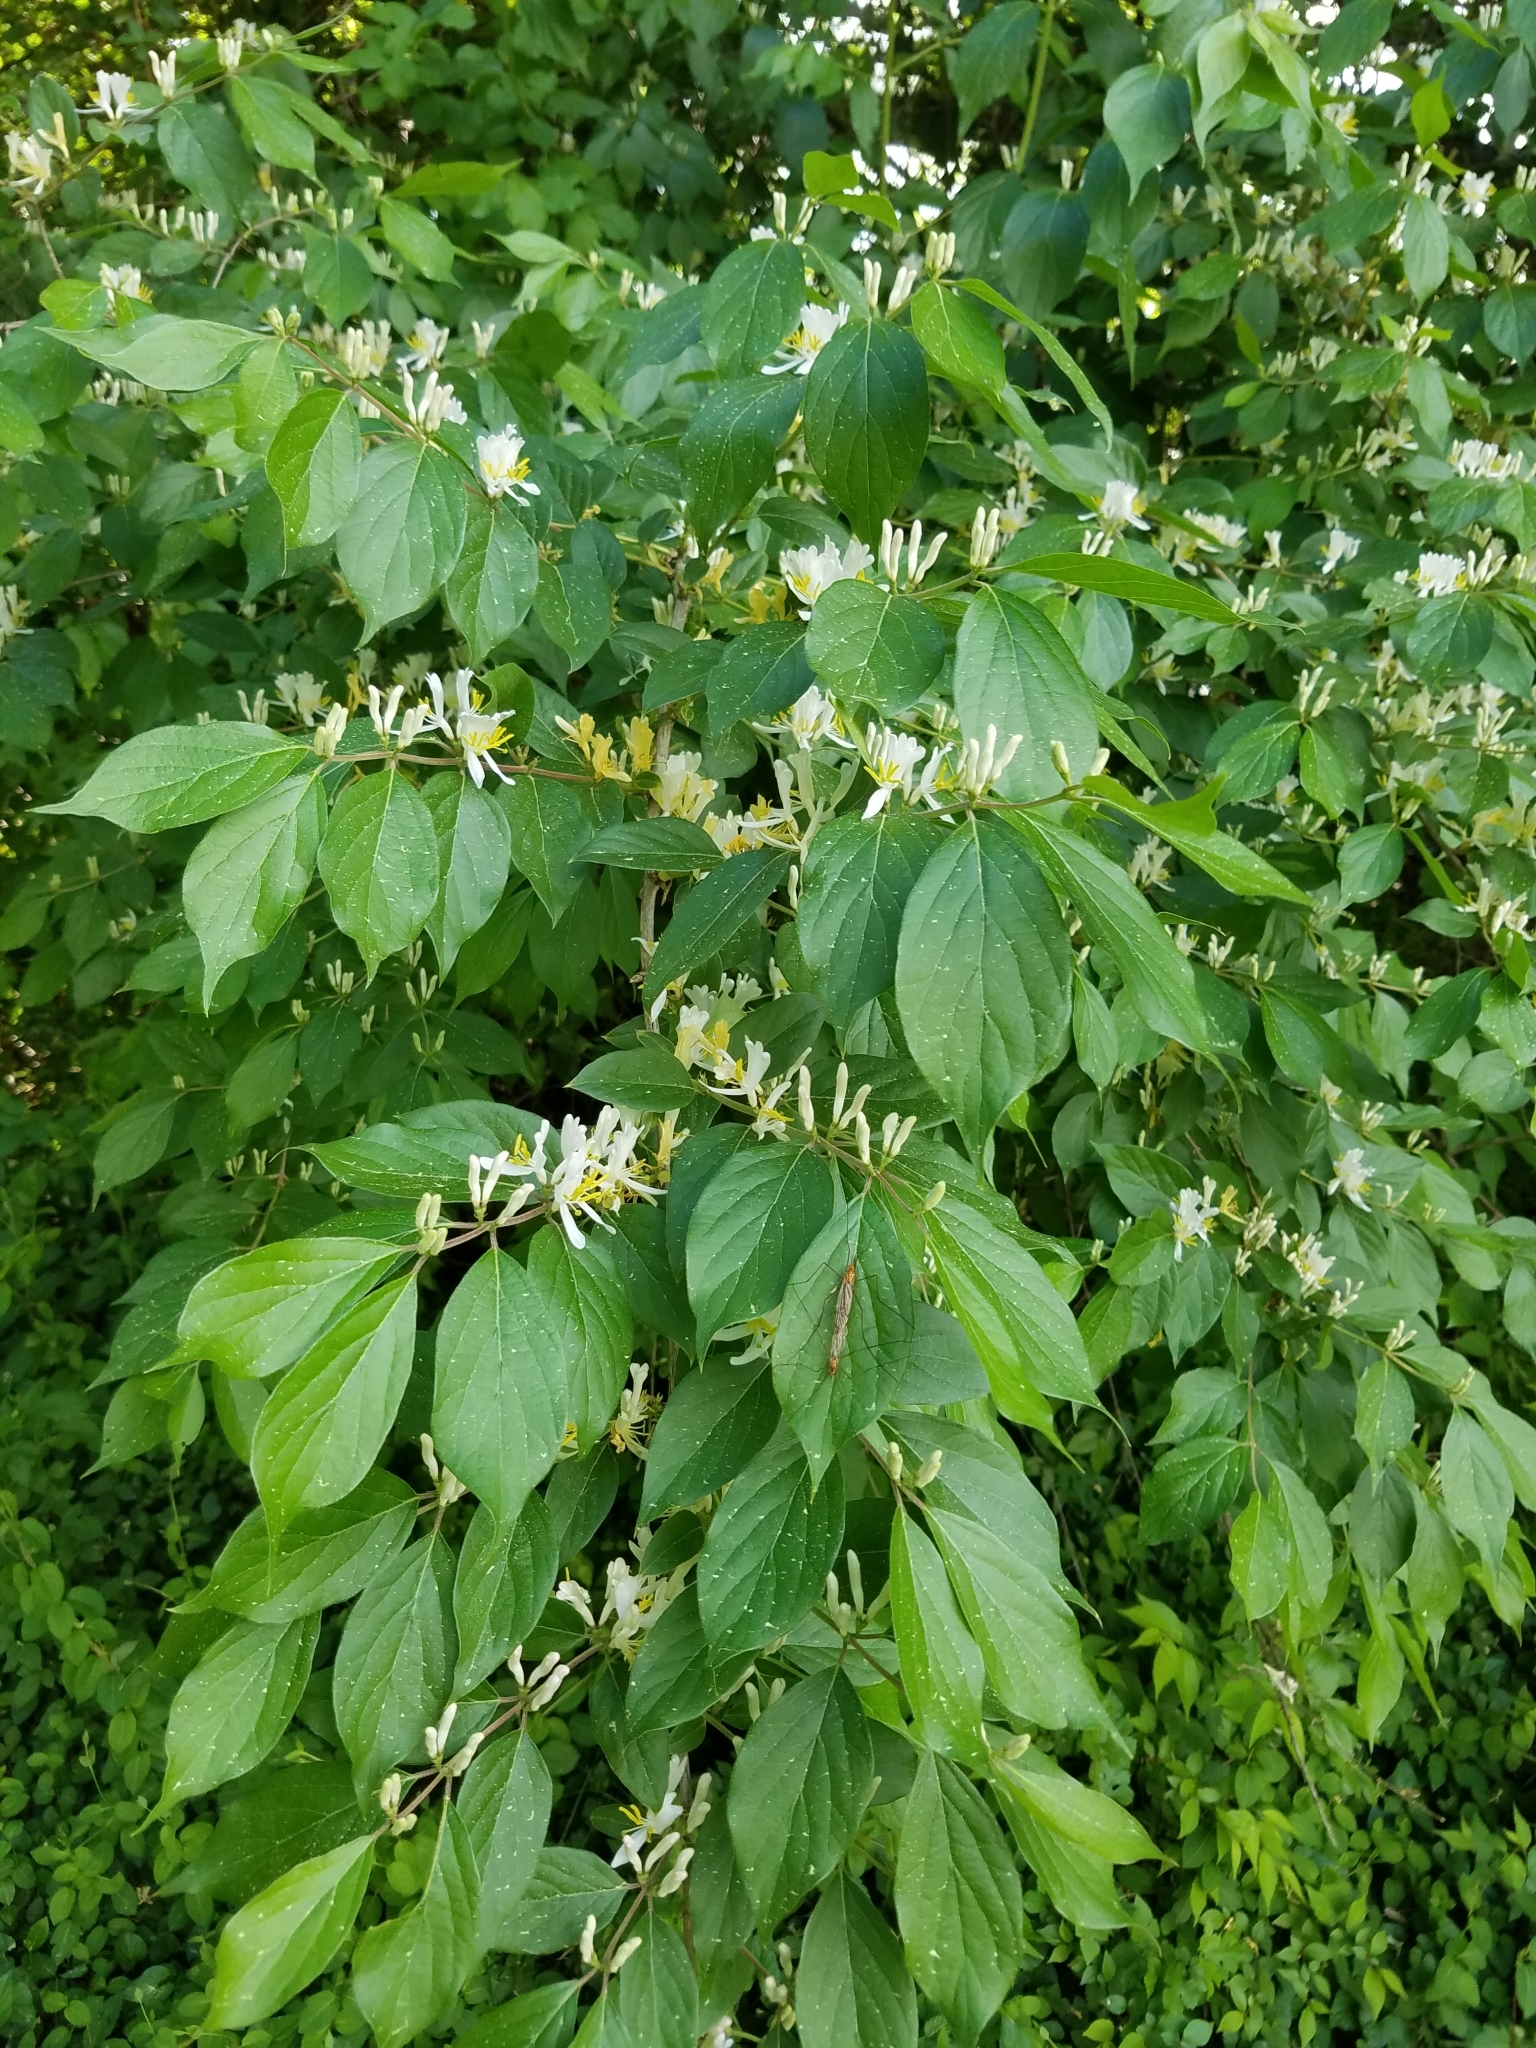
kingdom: Plantae
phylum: Tracheophyta
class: Magnoliopsida
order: Dipsacales
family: Caprifoliaceae
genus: Lonicera
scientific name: Lonicera maackii
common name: Amur honeysuckle
